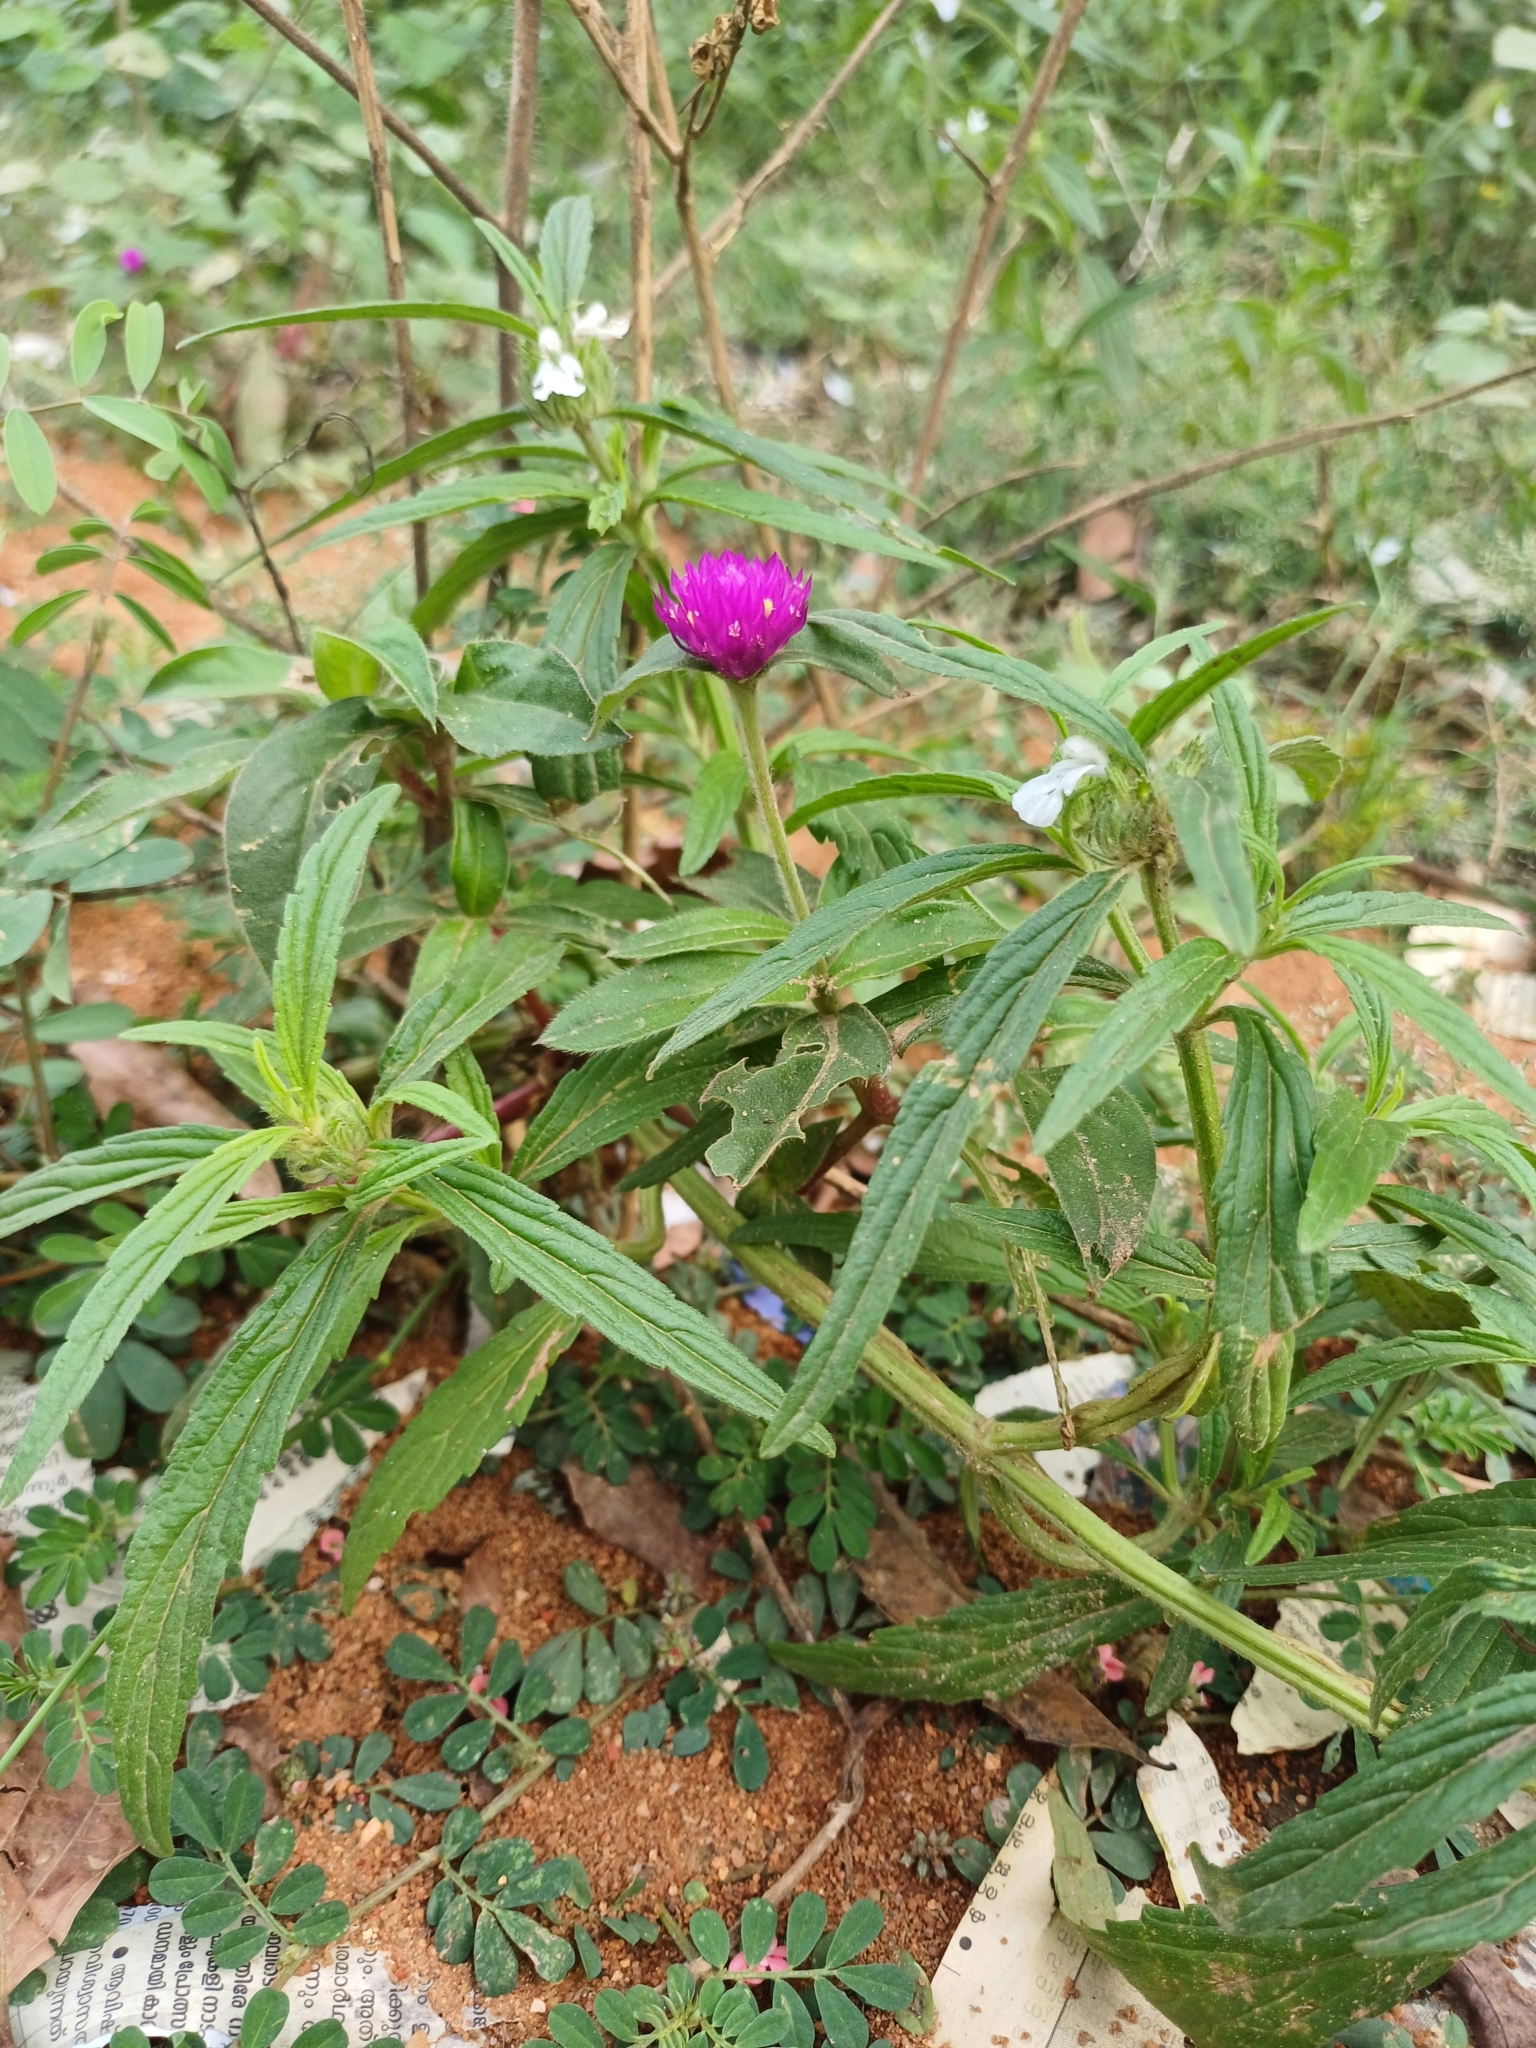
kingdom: Plantae
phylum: Tracheophyta
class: Magnoliopsida
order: Caryophyllales
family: Amaranthaceae
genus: Gomphrena
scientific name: Gomphrena globosa
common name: Common globe amaranth
